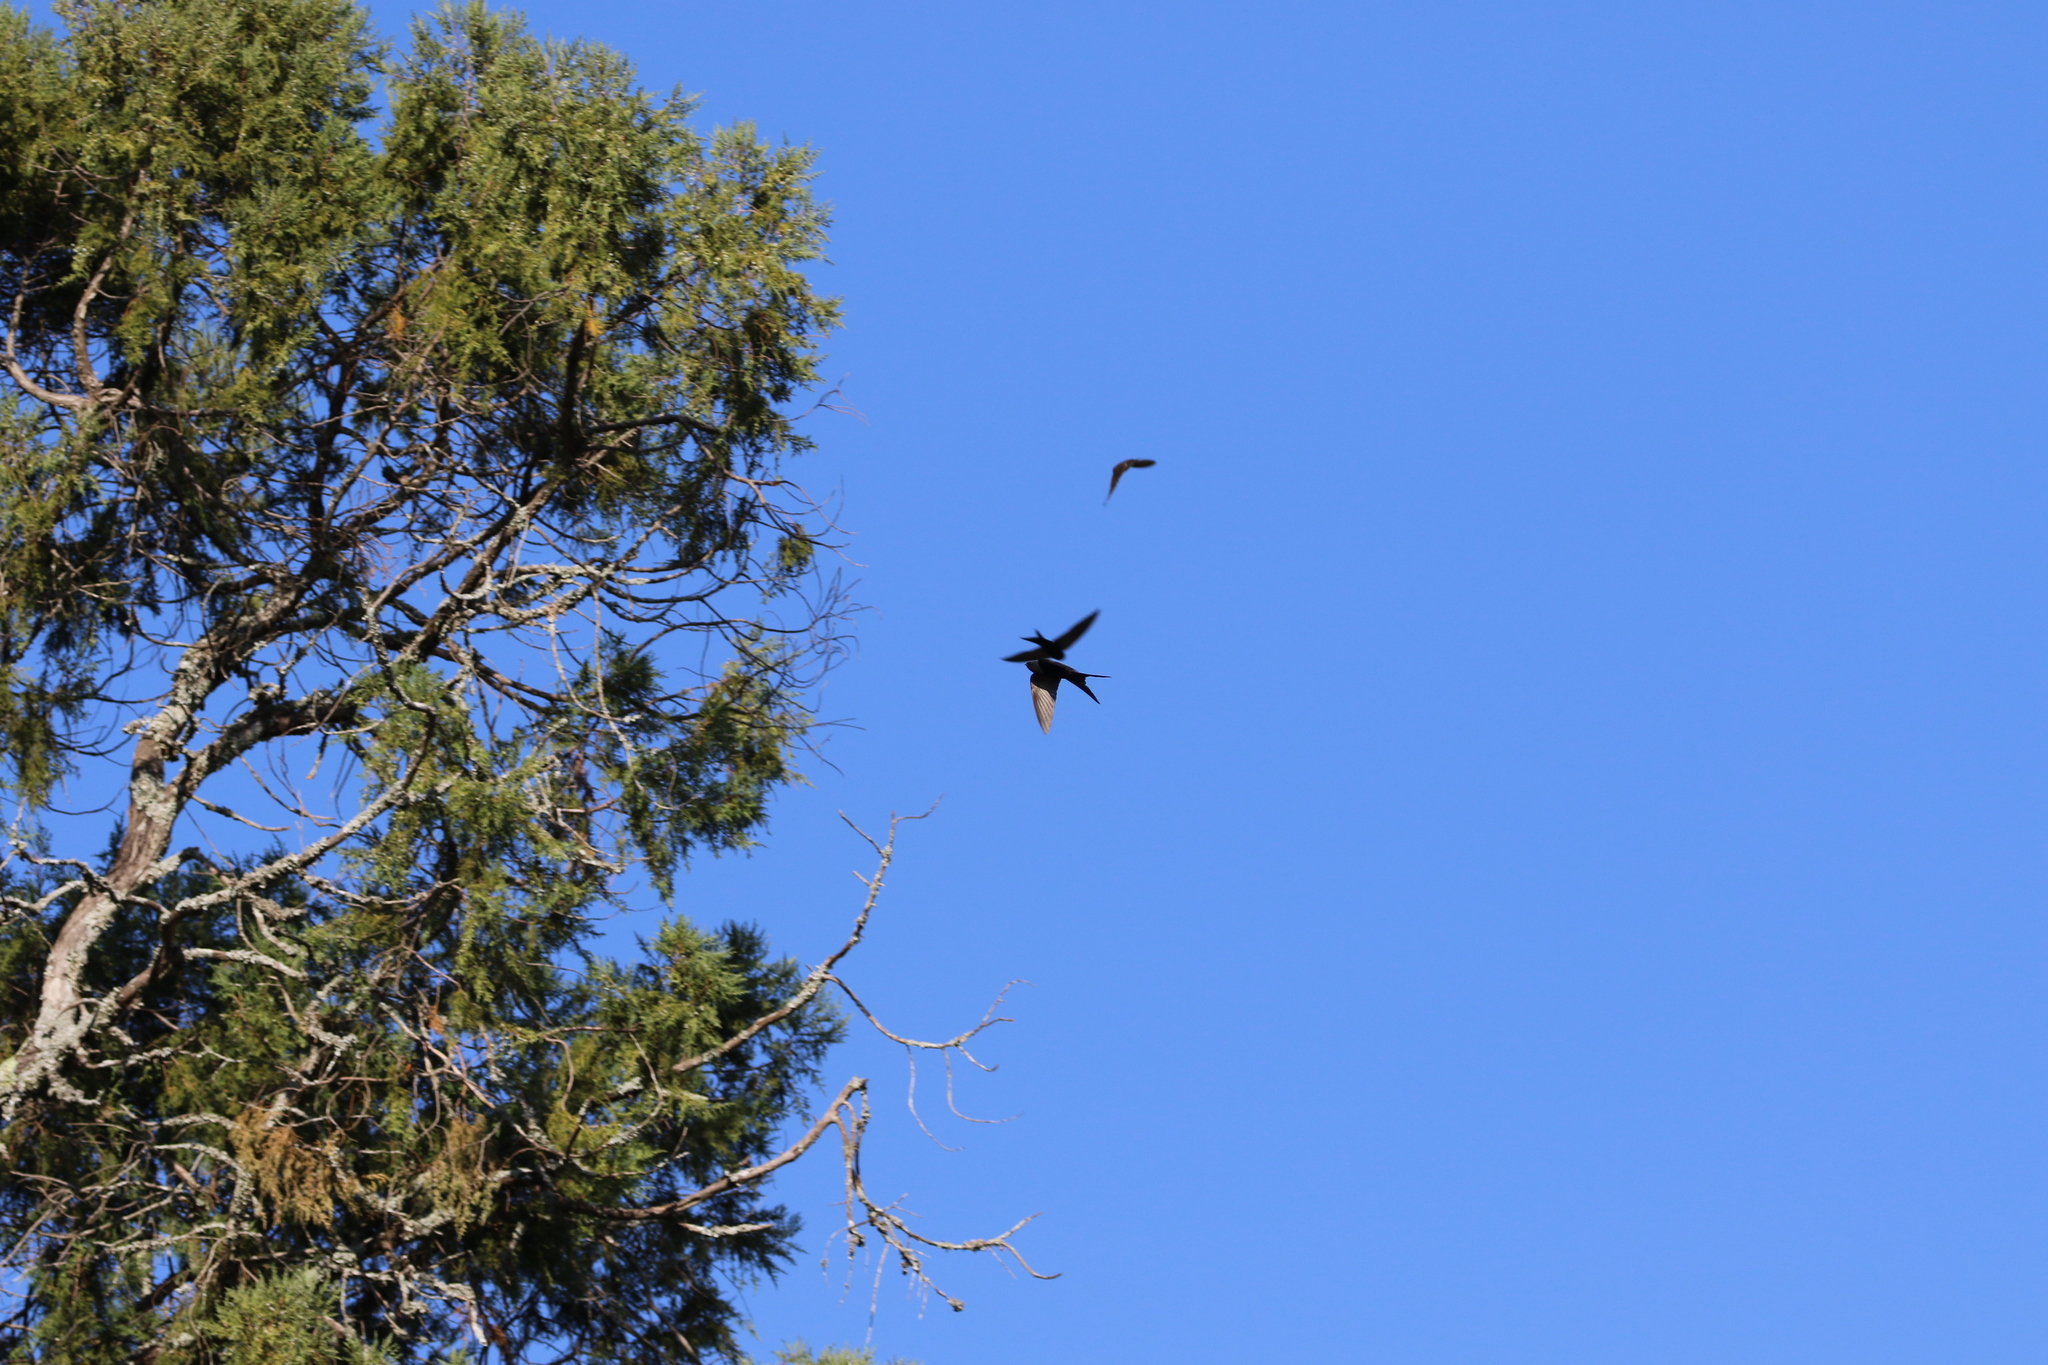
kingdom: Animalia
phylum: Chordata
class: Aves
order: Passeriformes
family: Hirundinidae
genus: Psalidoprocne
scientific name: Psalidoprocne pristoptera
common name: Black saw-wing
